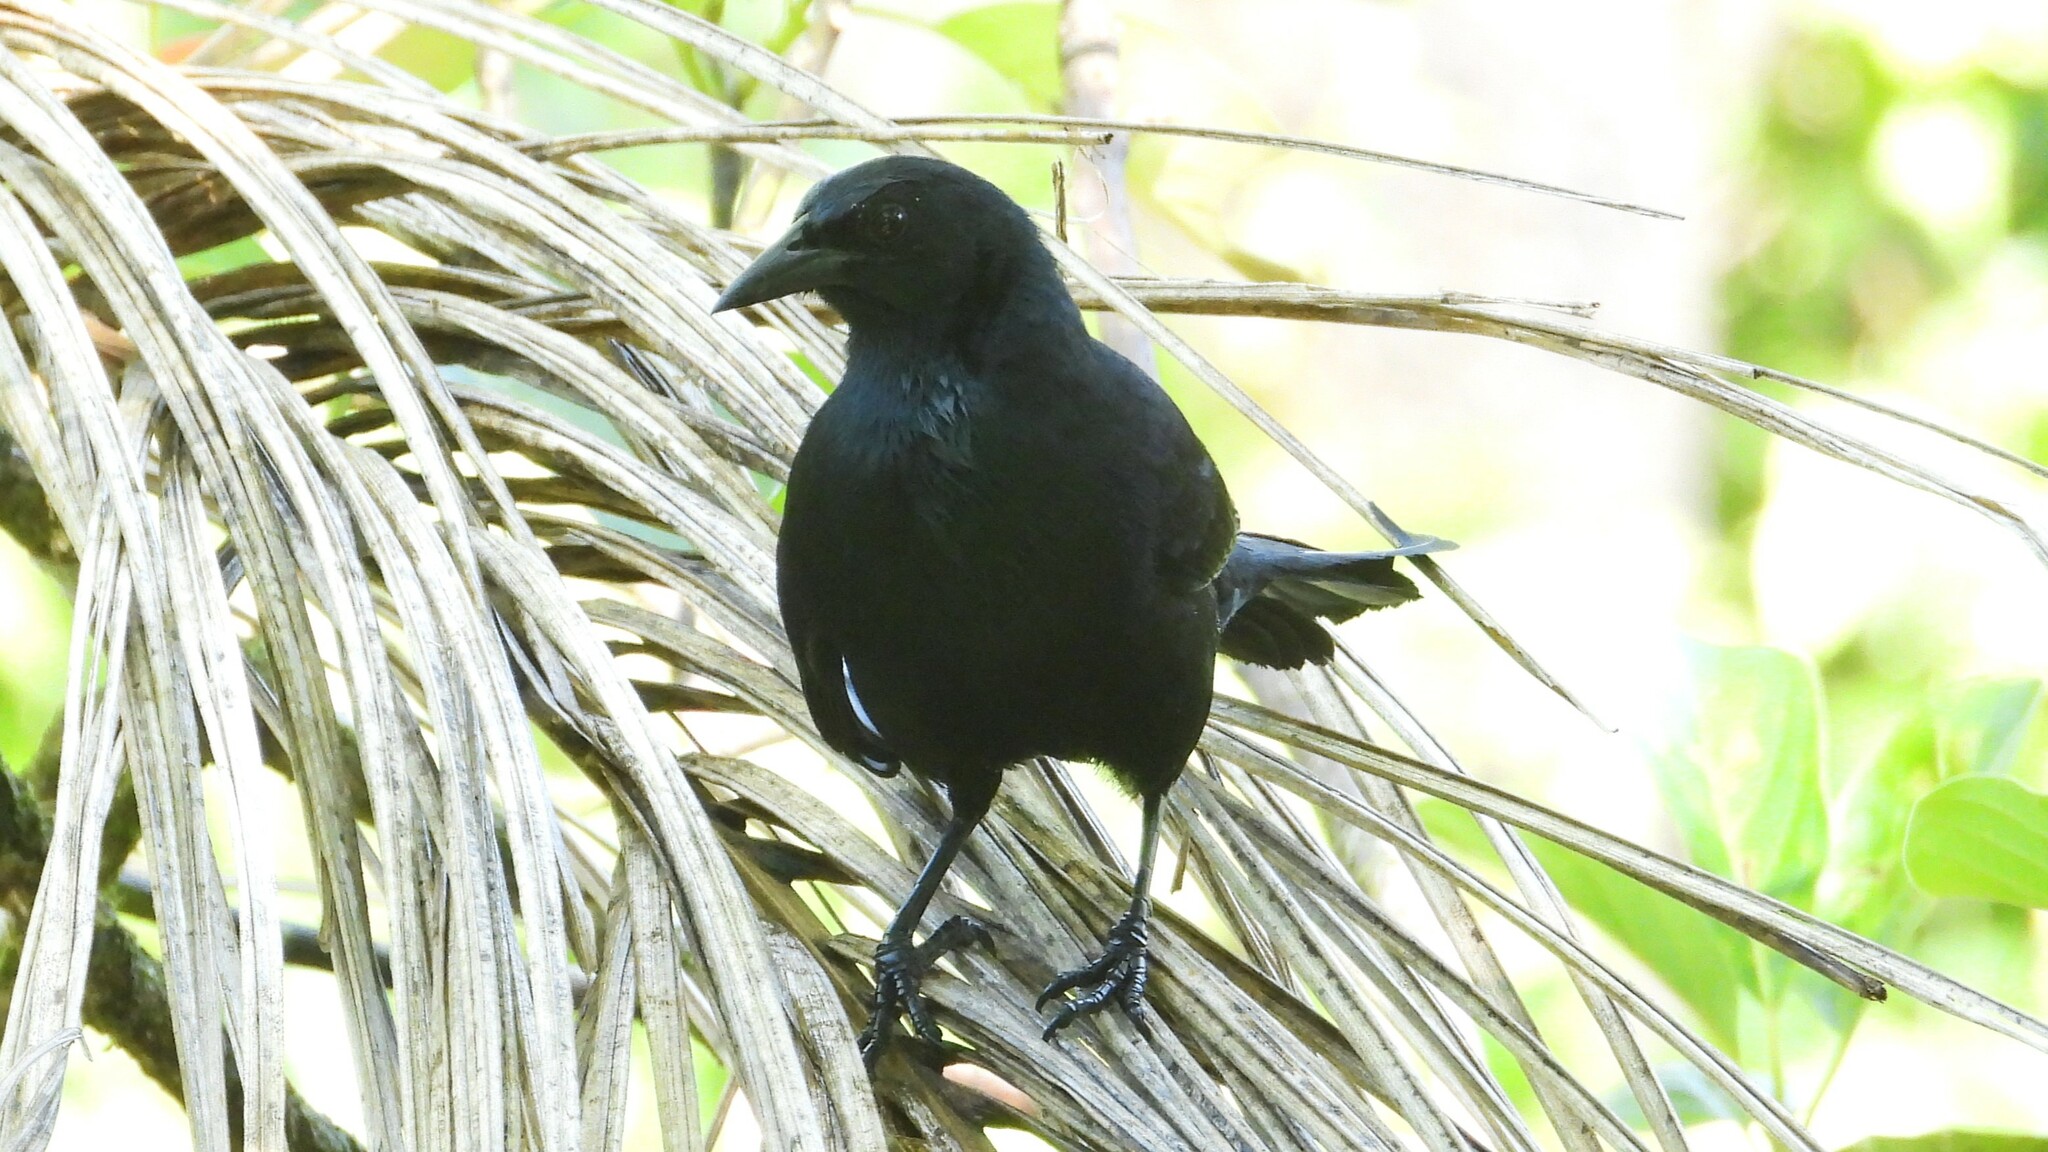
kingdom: Animalia
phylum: Chordata
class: Aves
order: Passeriformes
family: Icteridae
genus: Dives
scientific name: Dives dives
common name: Melodious blackbird
